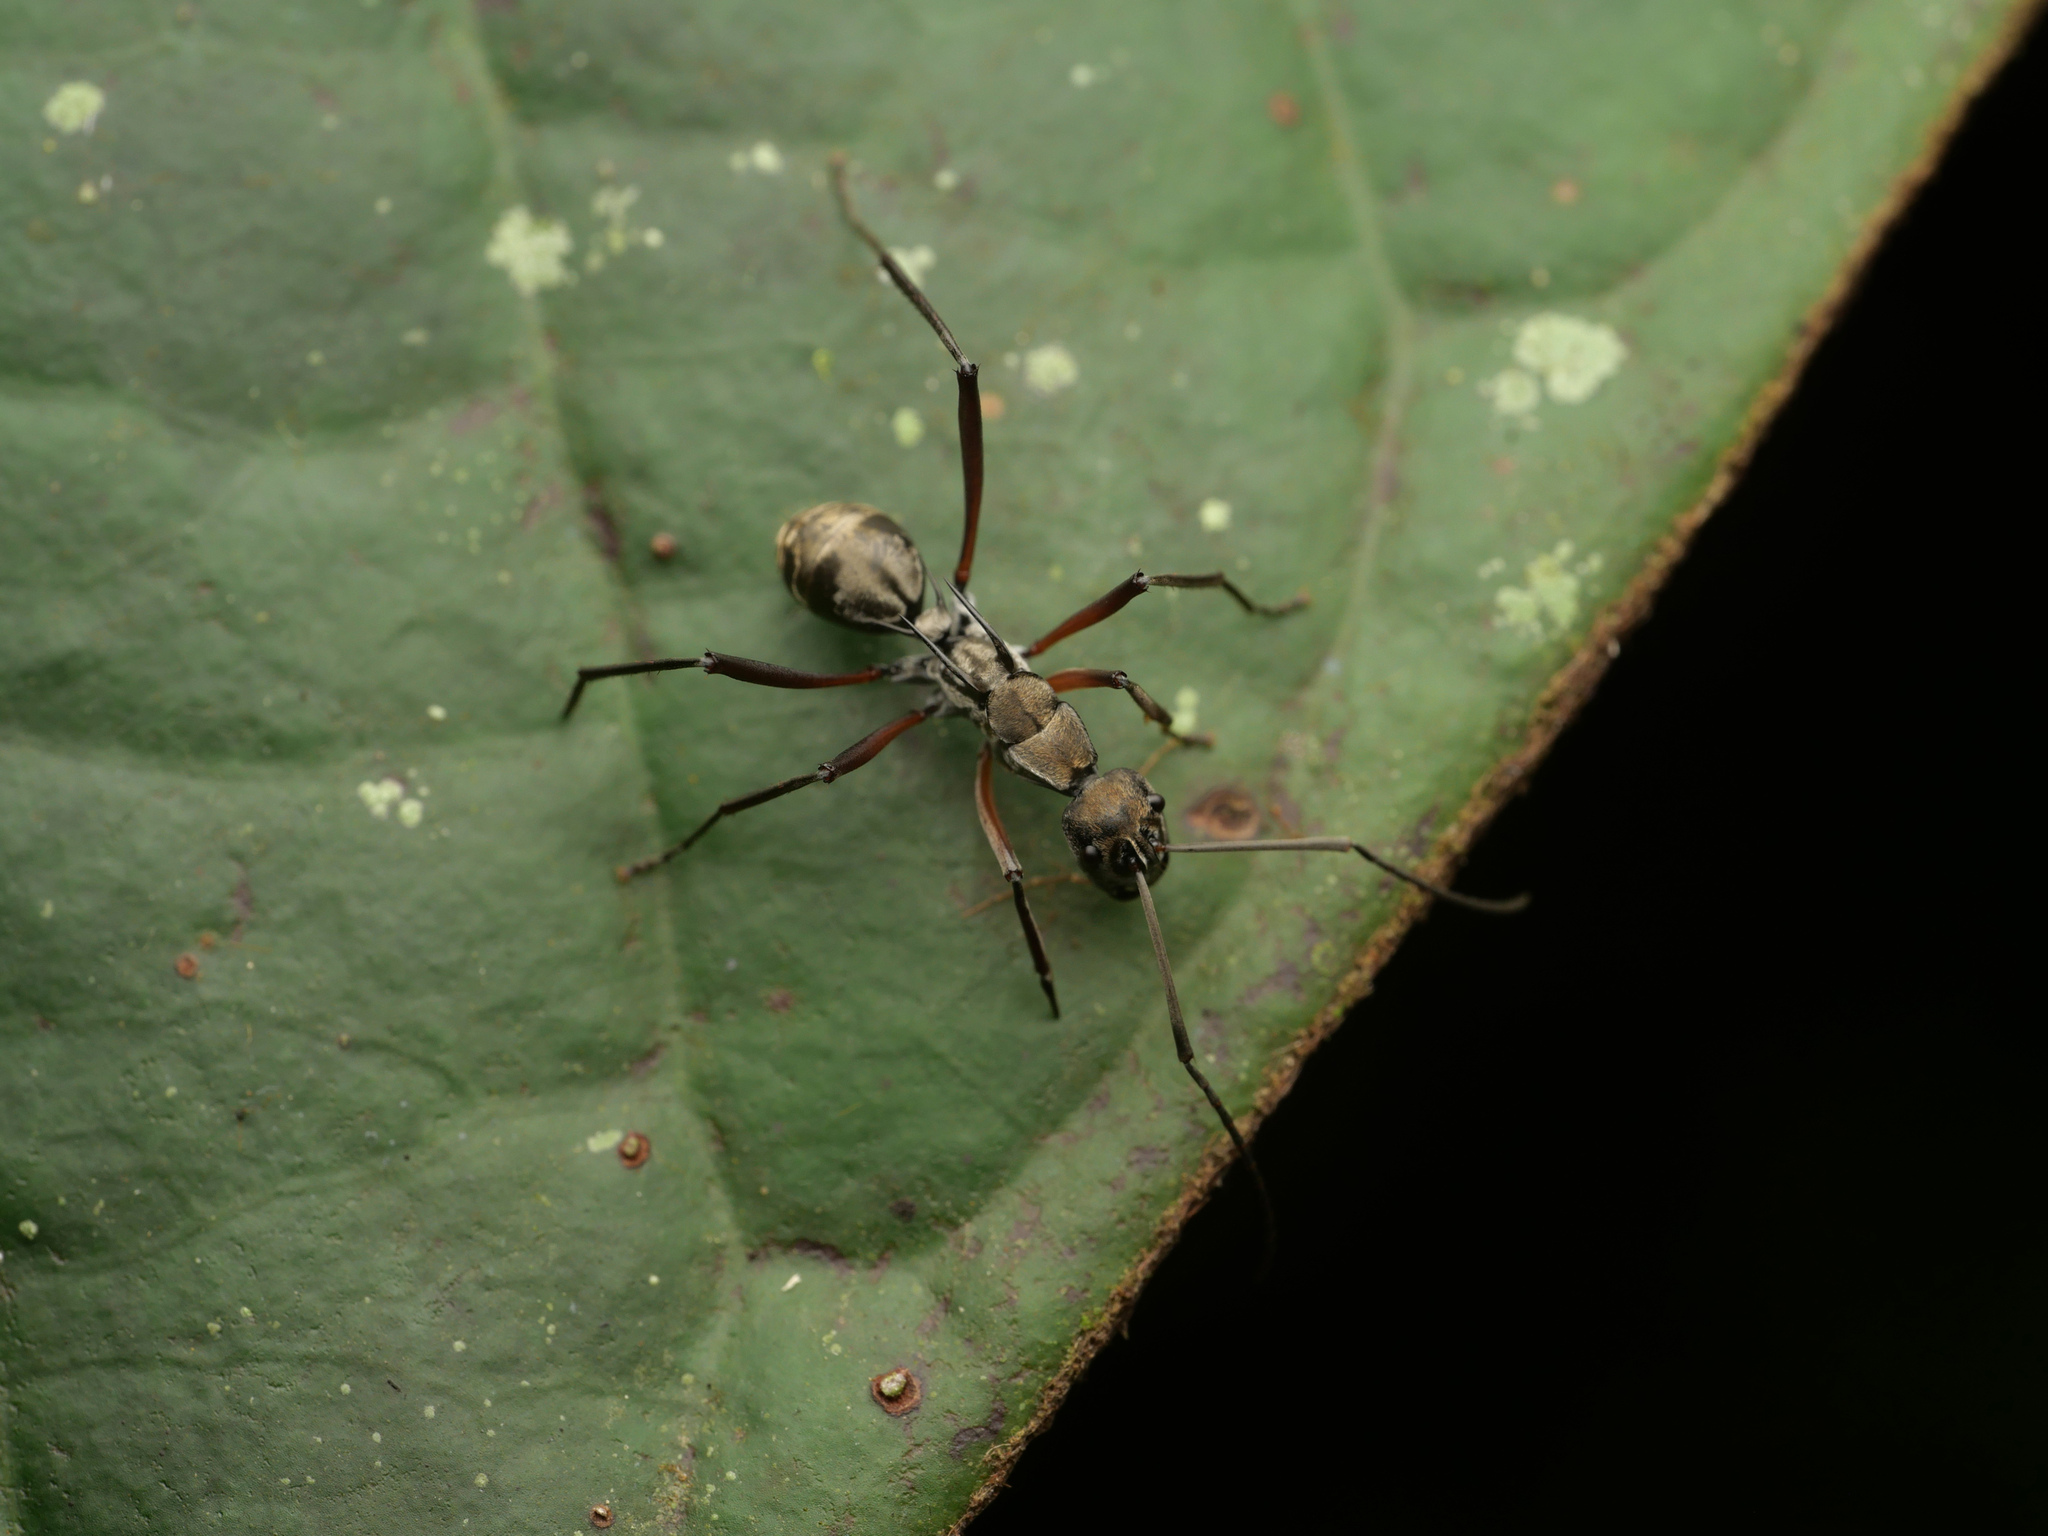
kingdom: Animalia
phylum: Arthropoda
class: Insecta
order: Hymenoptera
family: Formicidae
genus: Polyrhachis
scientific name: Polyrhachis metella
